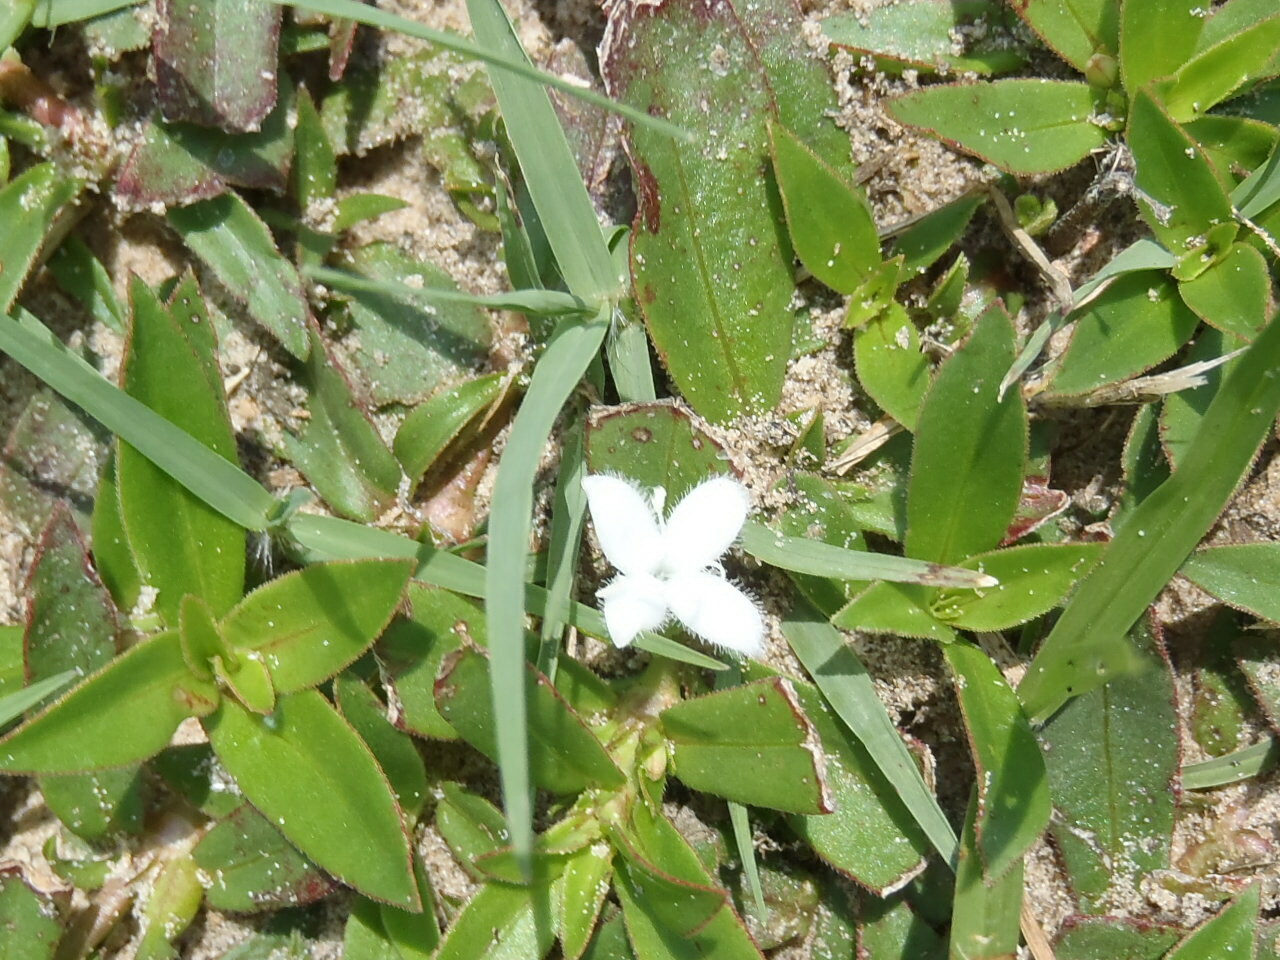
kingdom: Plantae
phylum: Tracheophyta
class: Magnoliopsida
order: Gentianales
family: Rubiaceae
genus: Diodia
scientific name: Diodia virginiana
